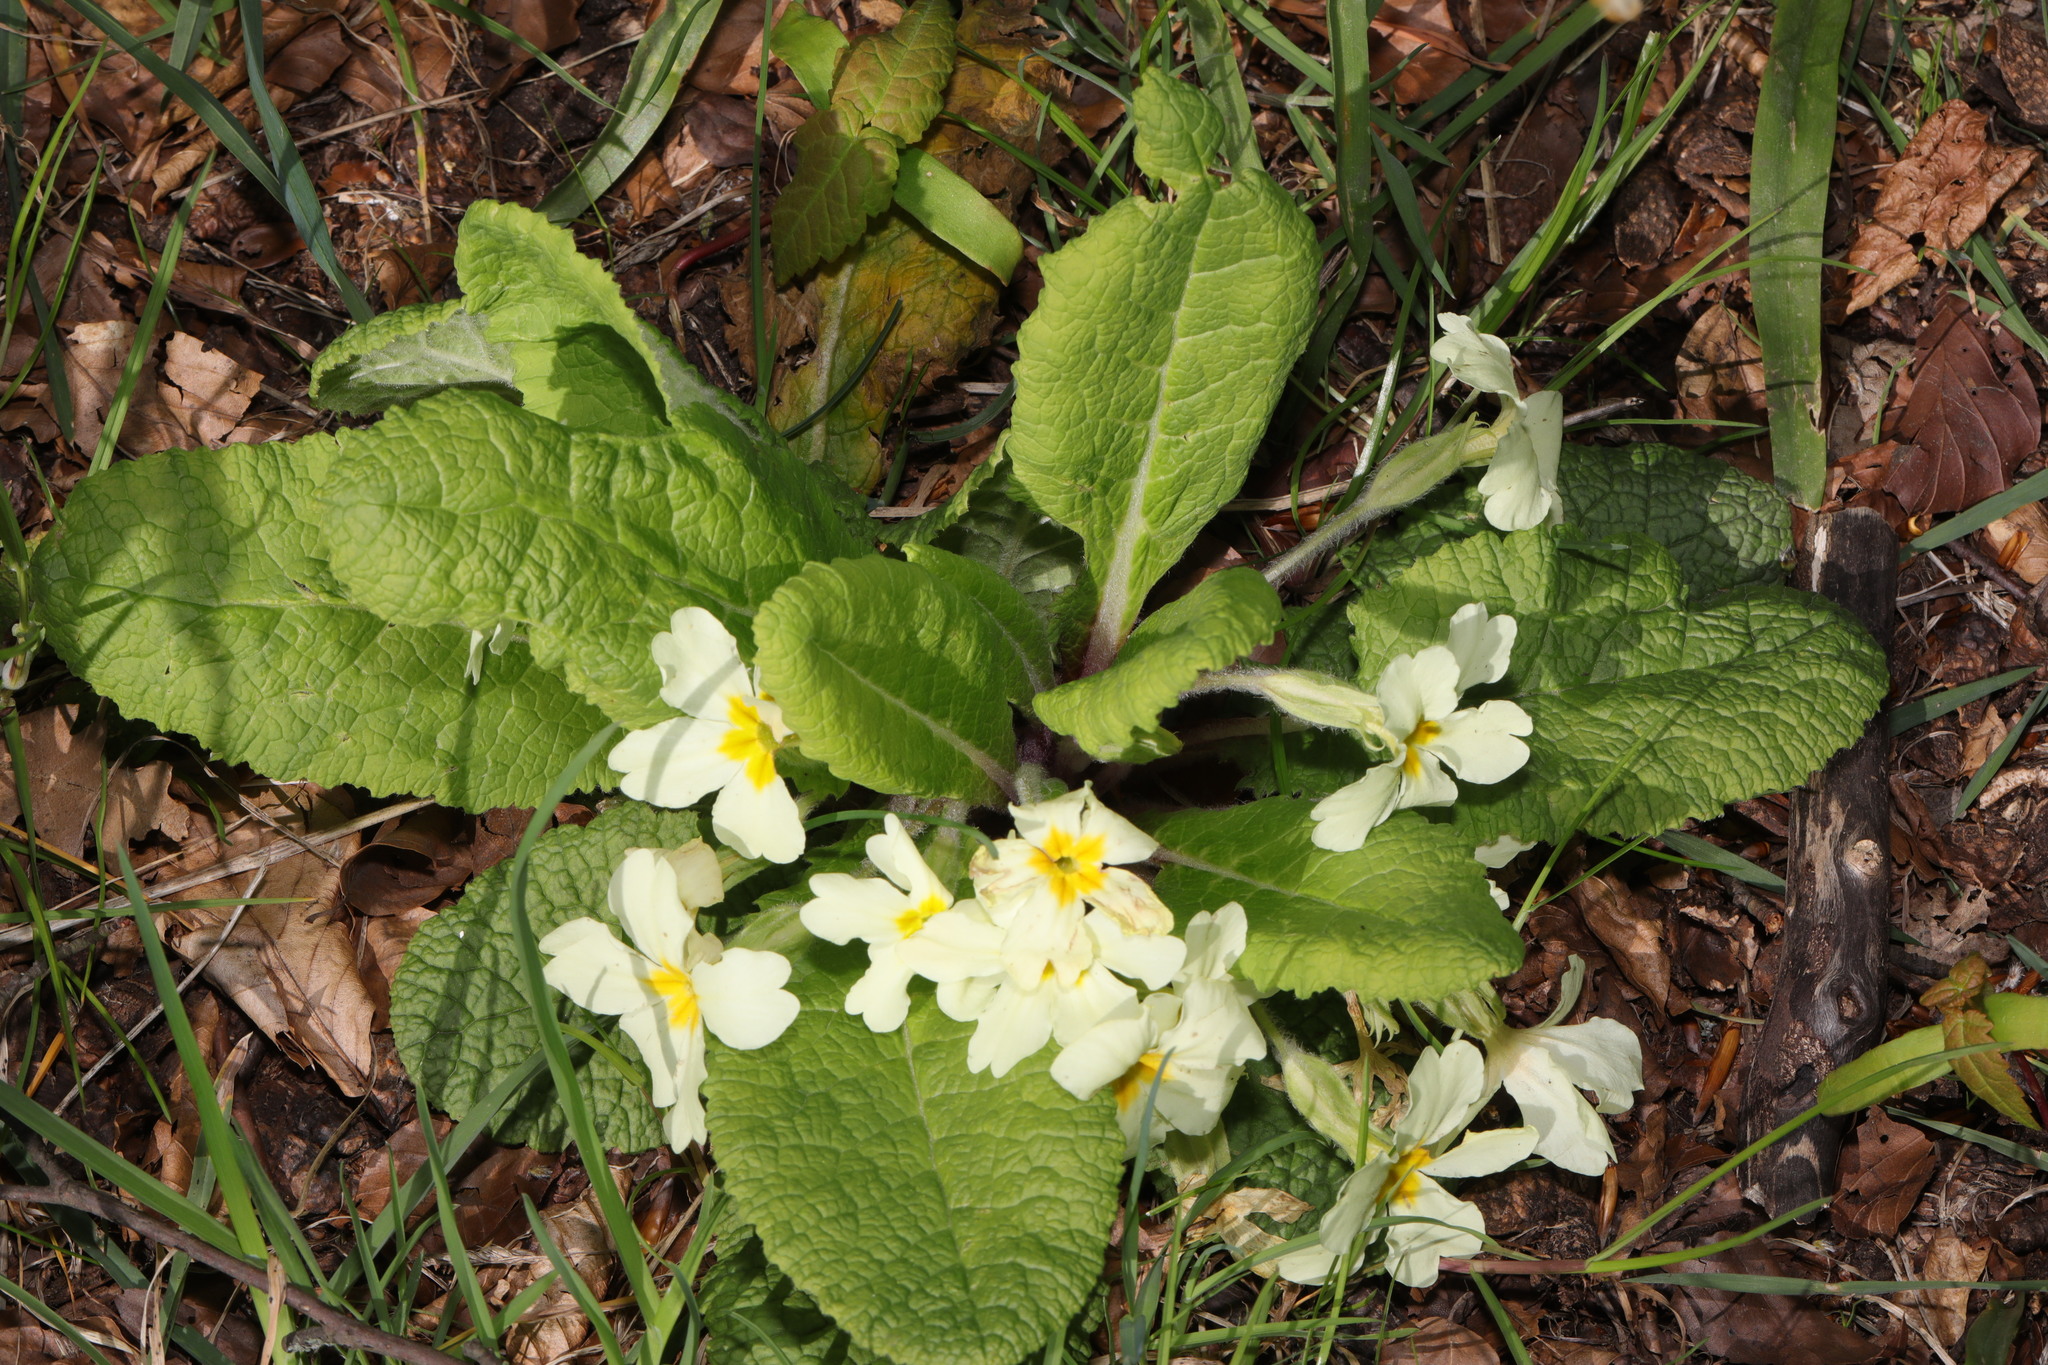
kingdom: Plantae
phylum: Tracheophyta
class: Magnoliopsida
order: Ericales
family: Primulaceae
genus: Primula
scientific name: Primula vulgaris
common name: Primrose
